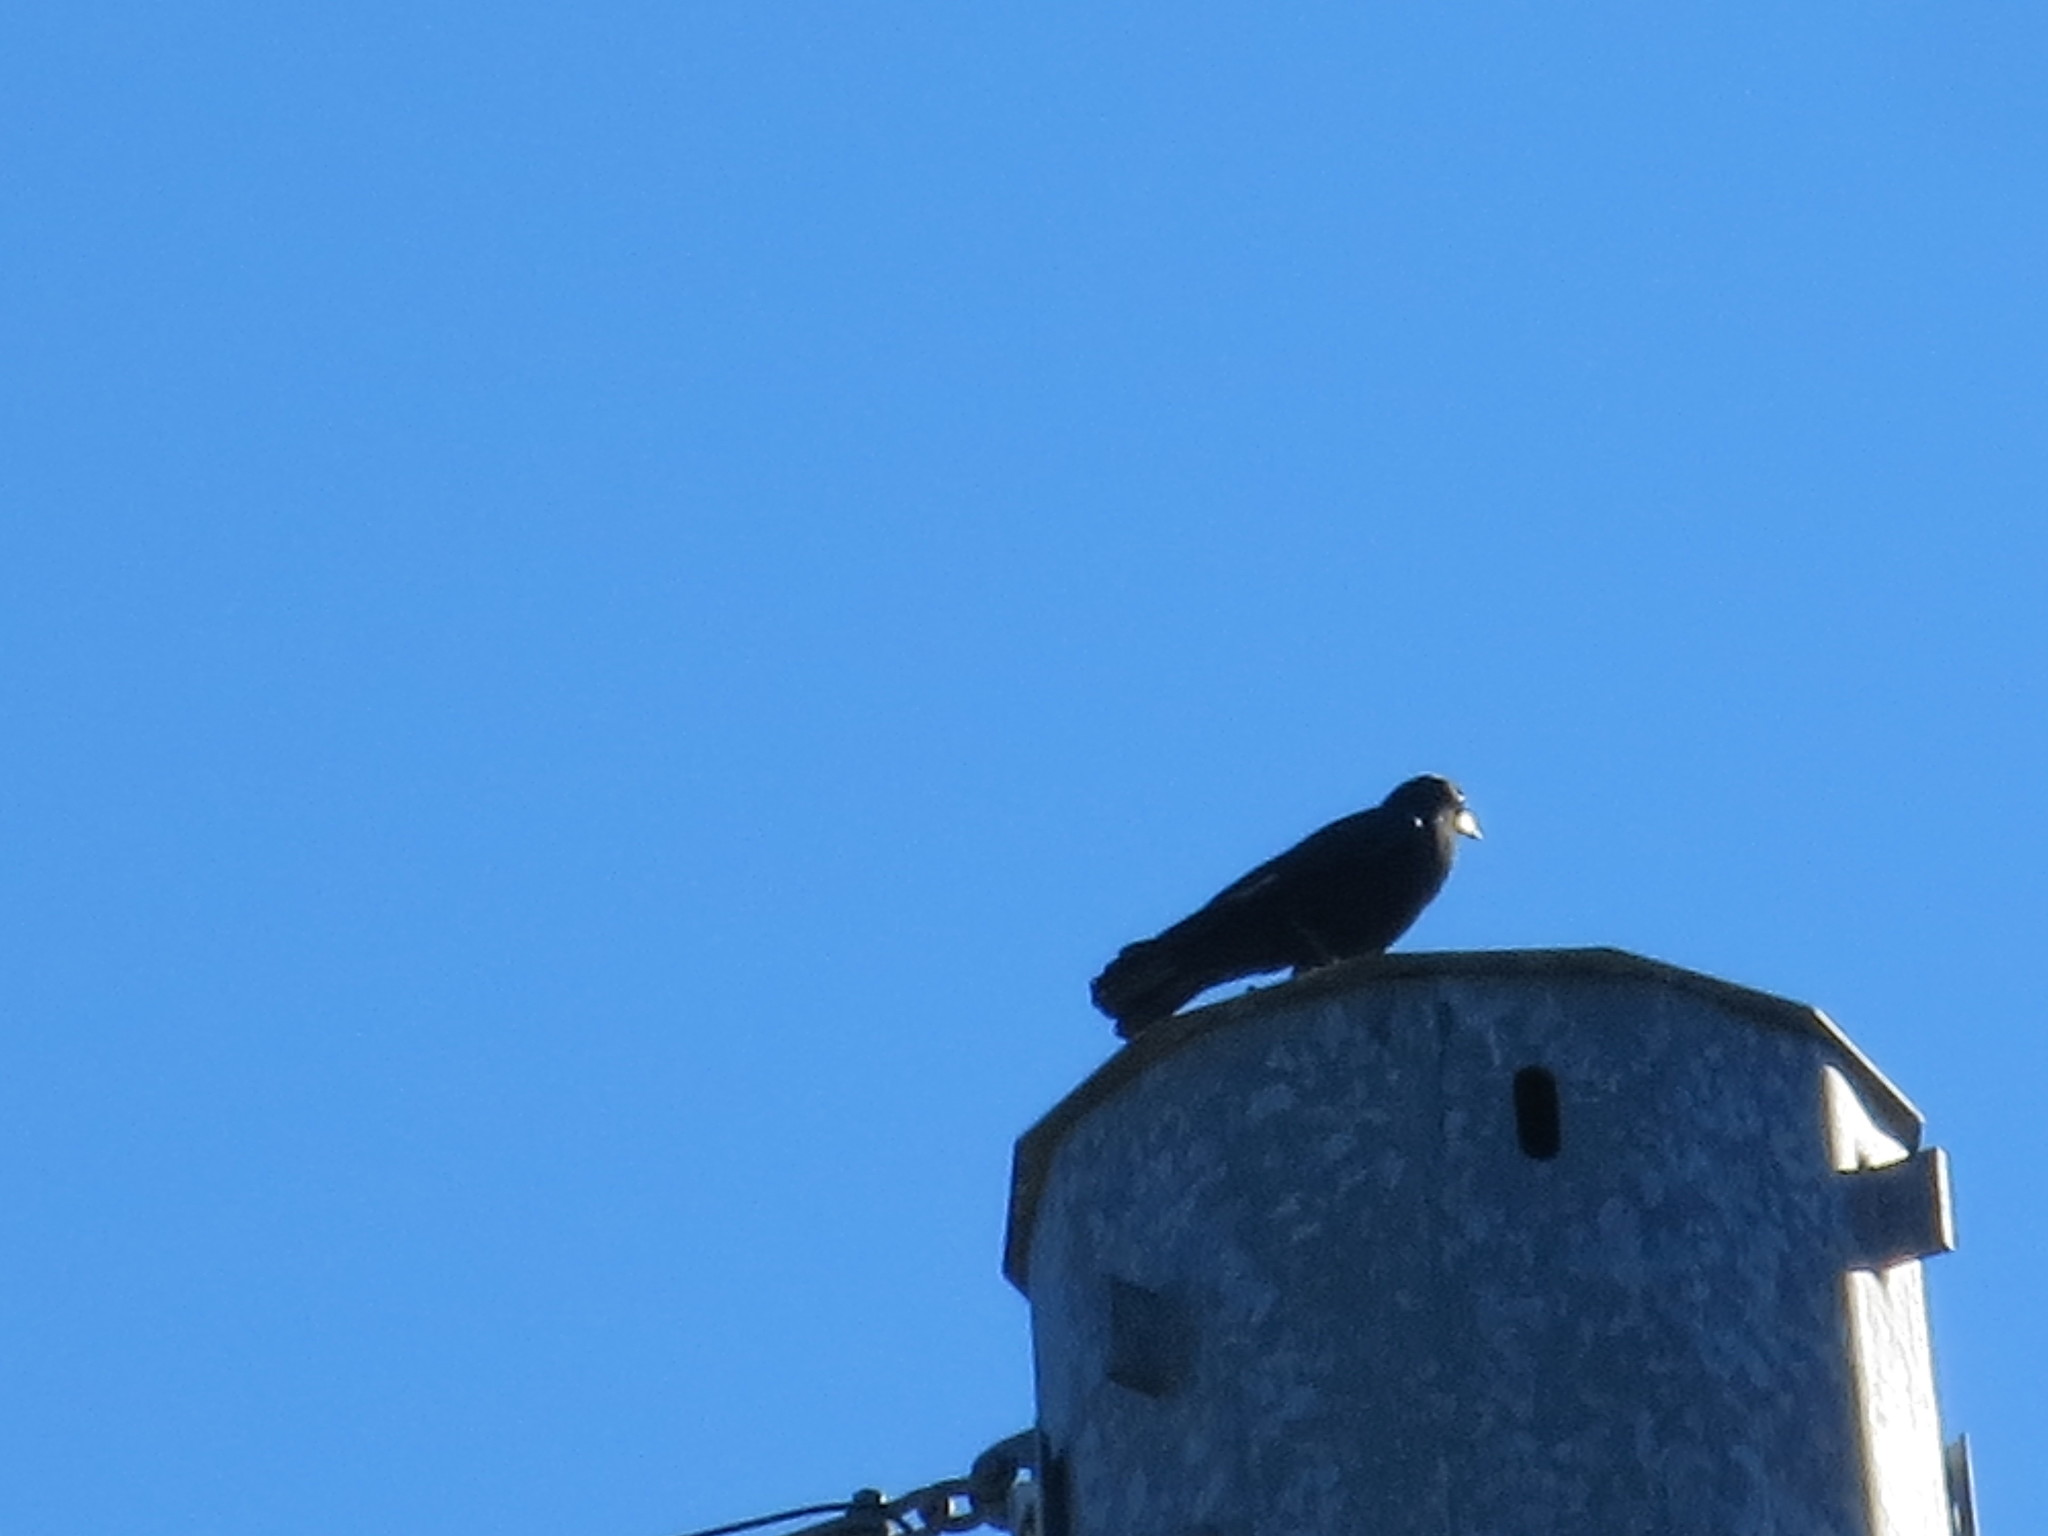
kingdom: Animalia
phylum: Chordata
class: Aves
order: Passeriformes
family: Corvidae
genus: Corvus
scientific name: Corvus ossifragus
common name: Fish crow
